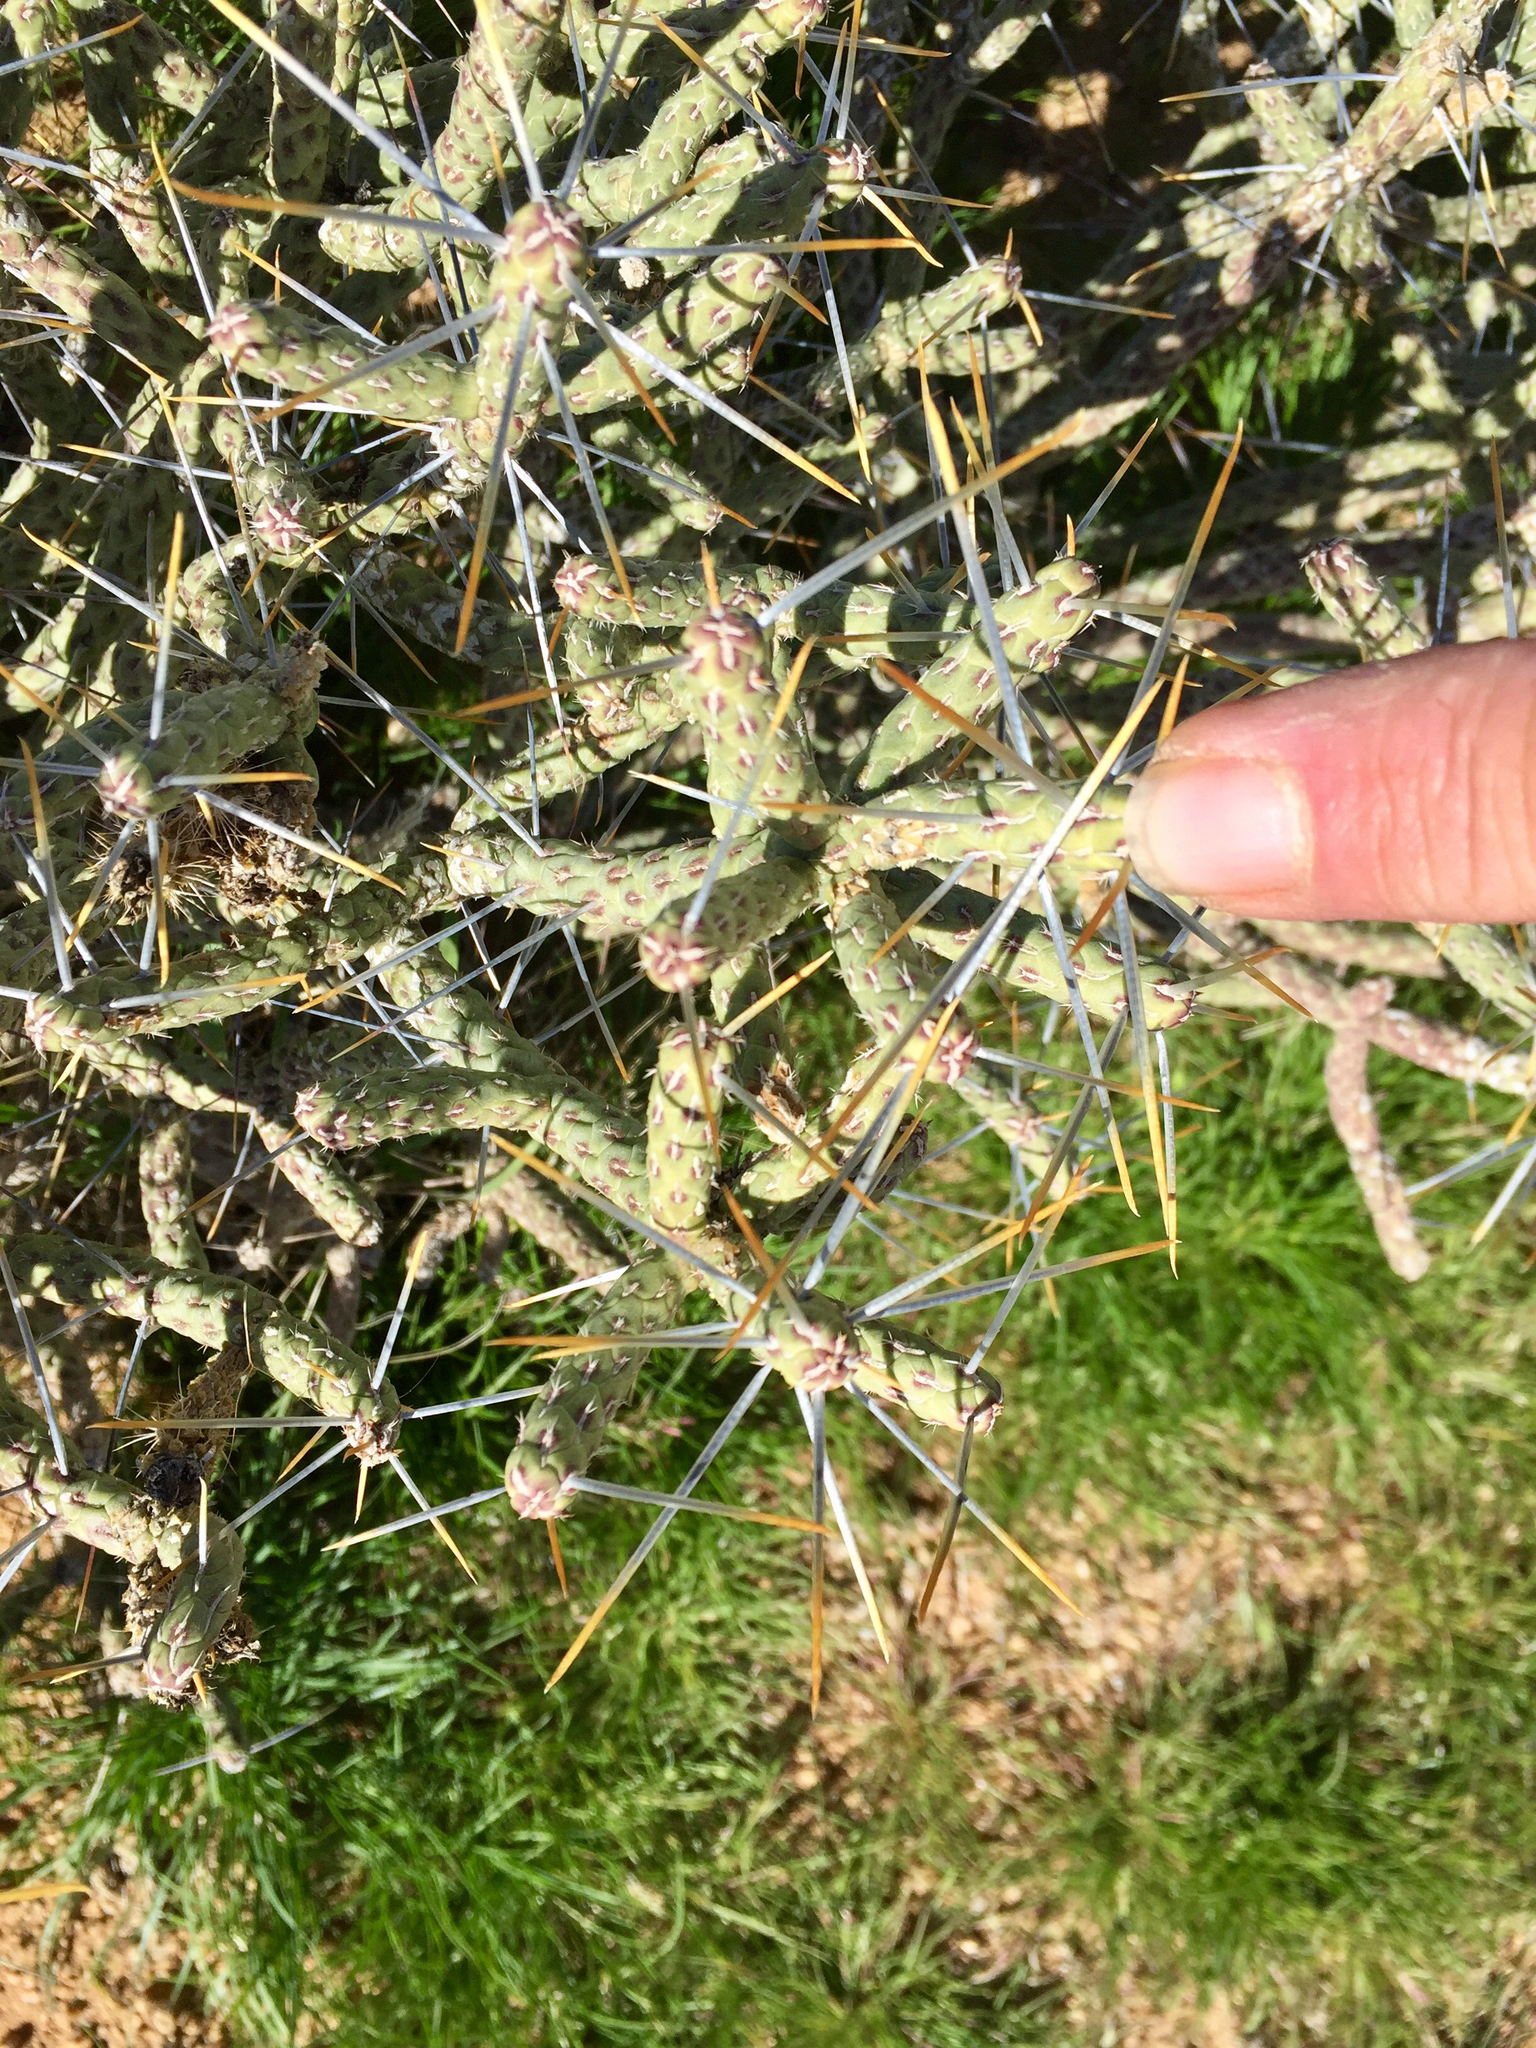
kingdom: Plantae
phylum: Tracheophyta
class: Magnoliopsida
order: Caryophyllales
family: Cactaceae
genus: Cylindropuntia
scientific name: Cylindropuntia ramosissima
